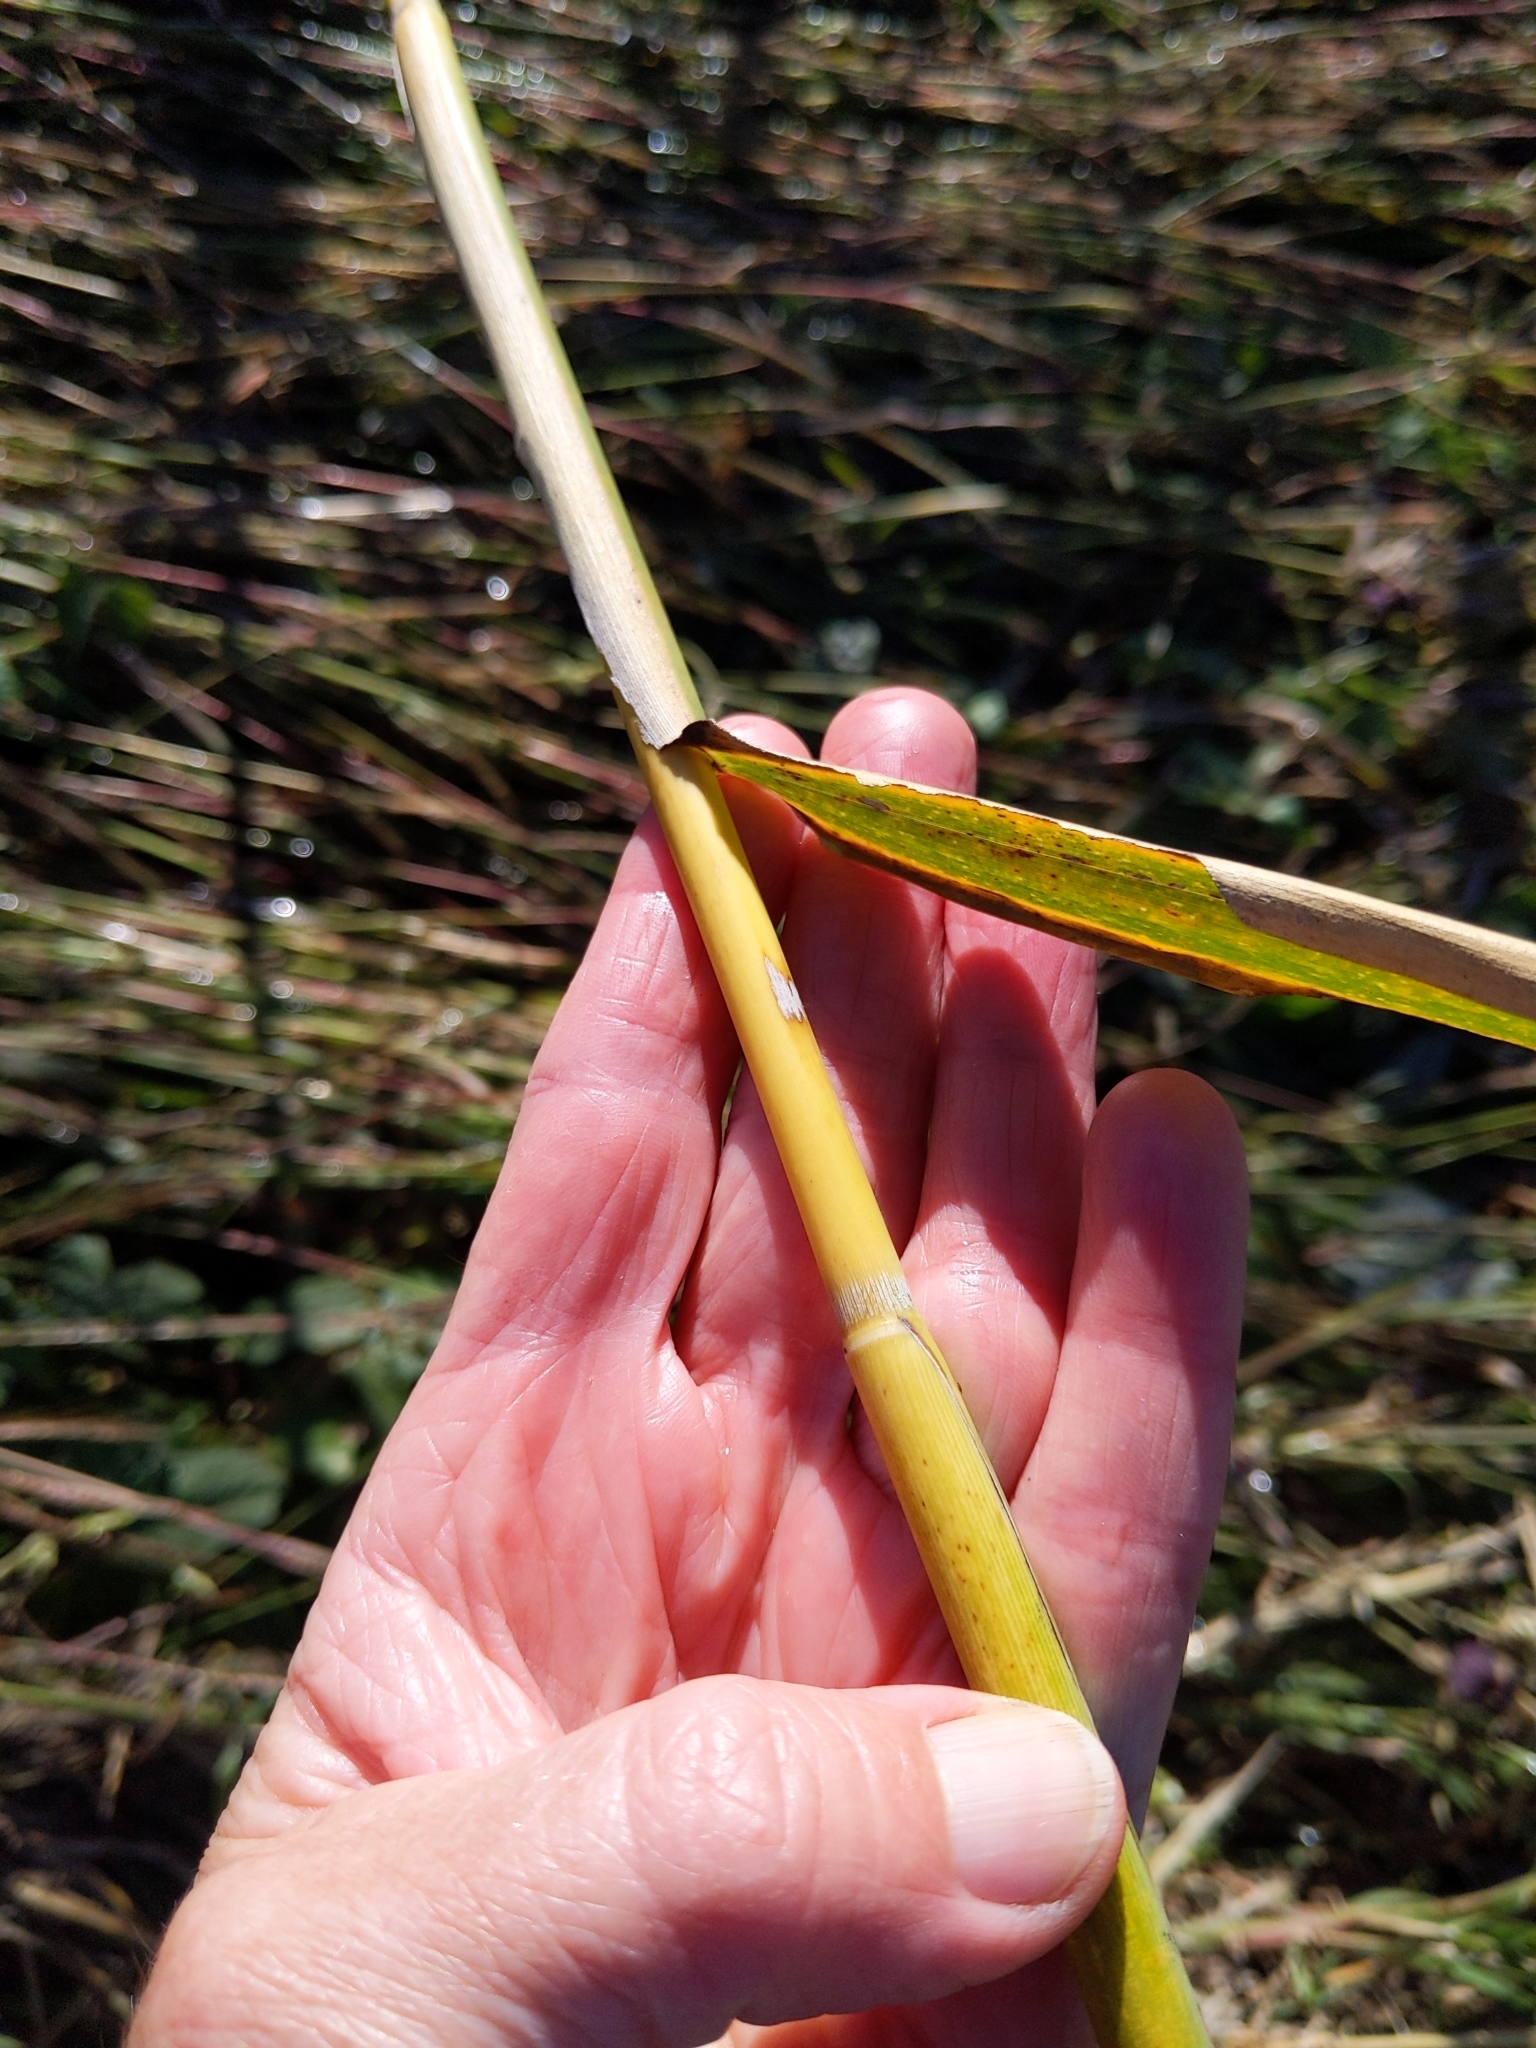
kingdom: Plantae
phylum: Tracheophyta
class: Liliopsida
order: Poales
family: Poaceae
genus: Phragmites
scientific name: Phragmites australis
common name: Common reed
